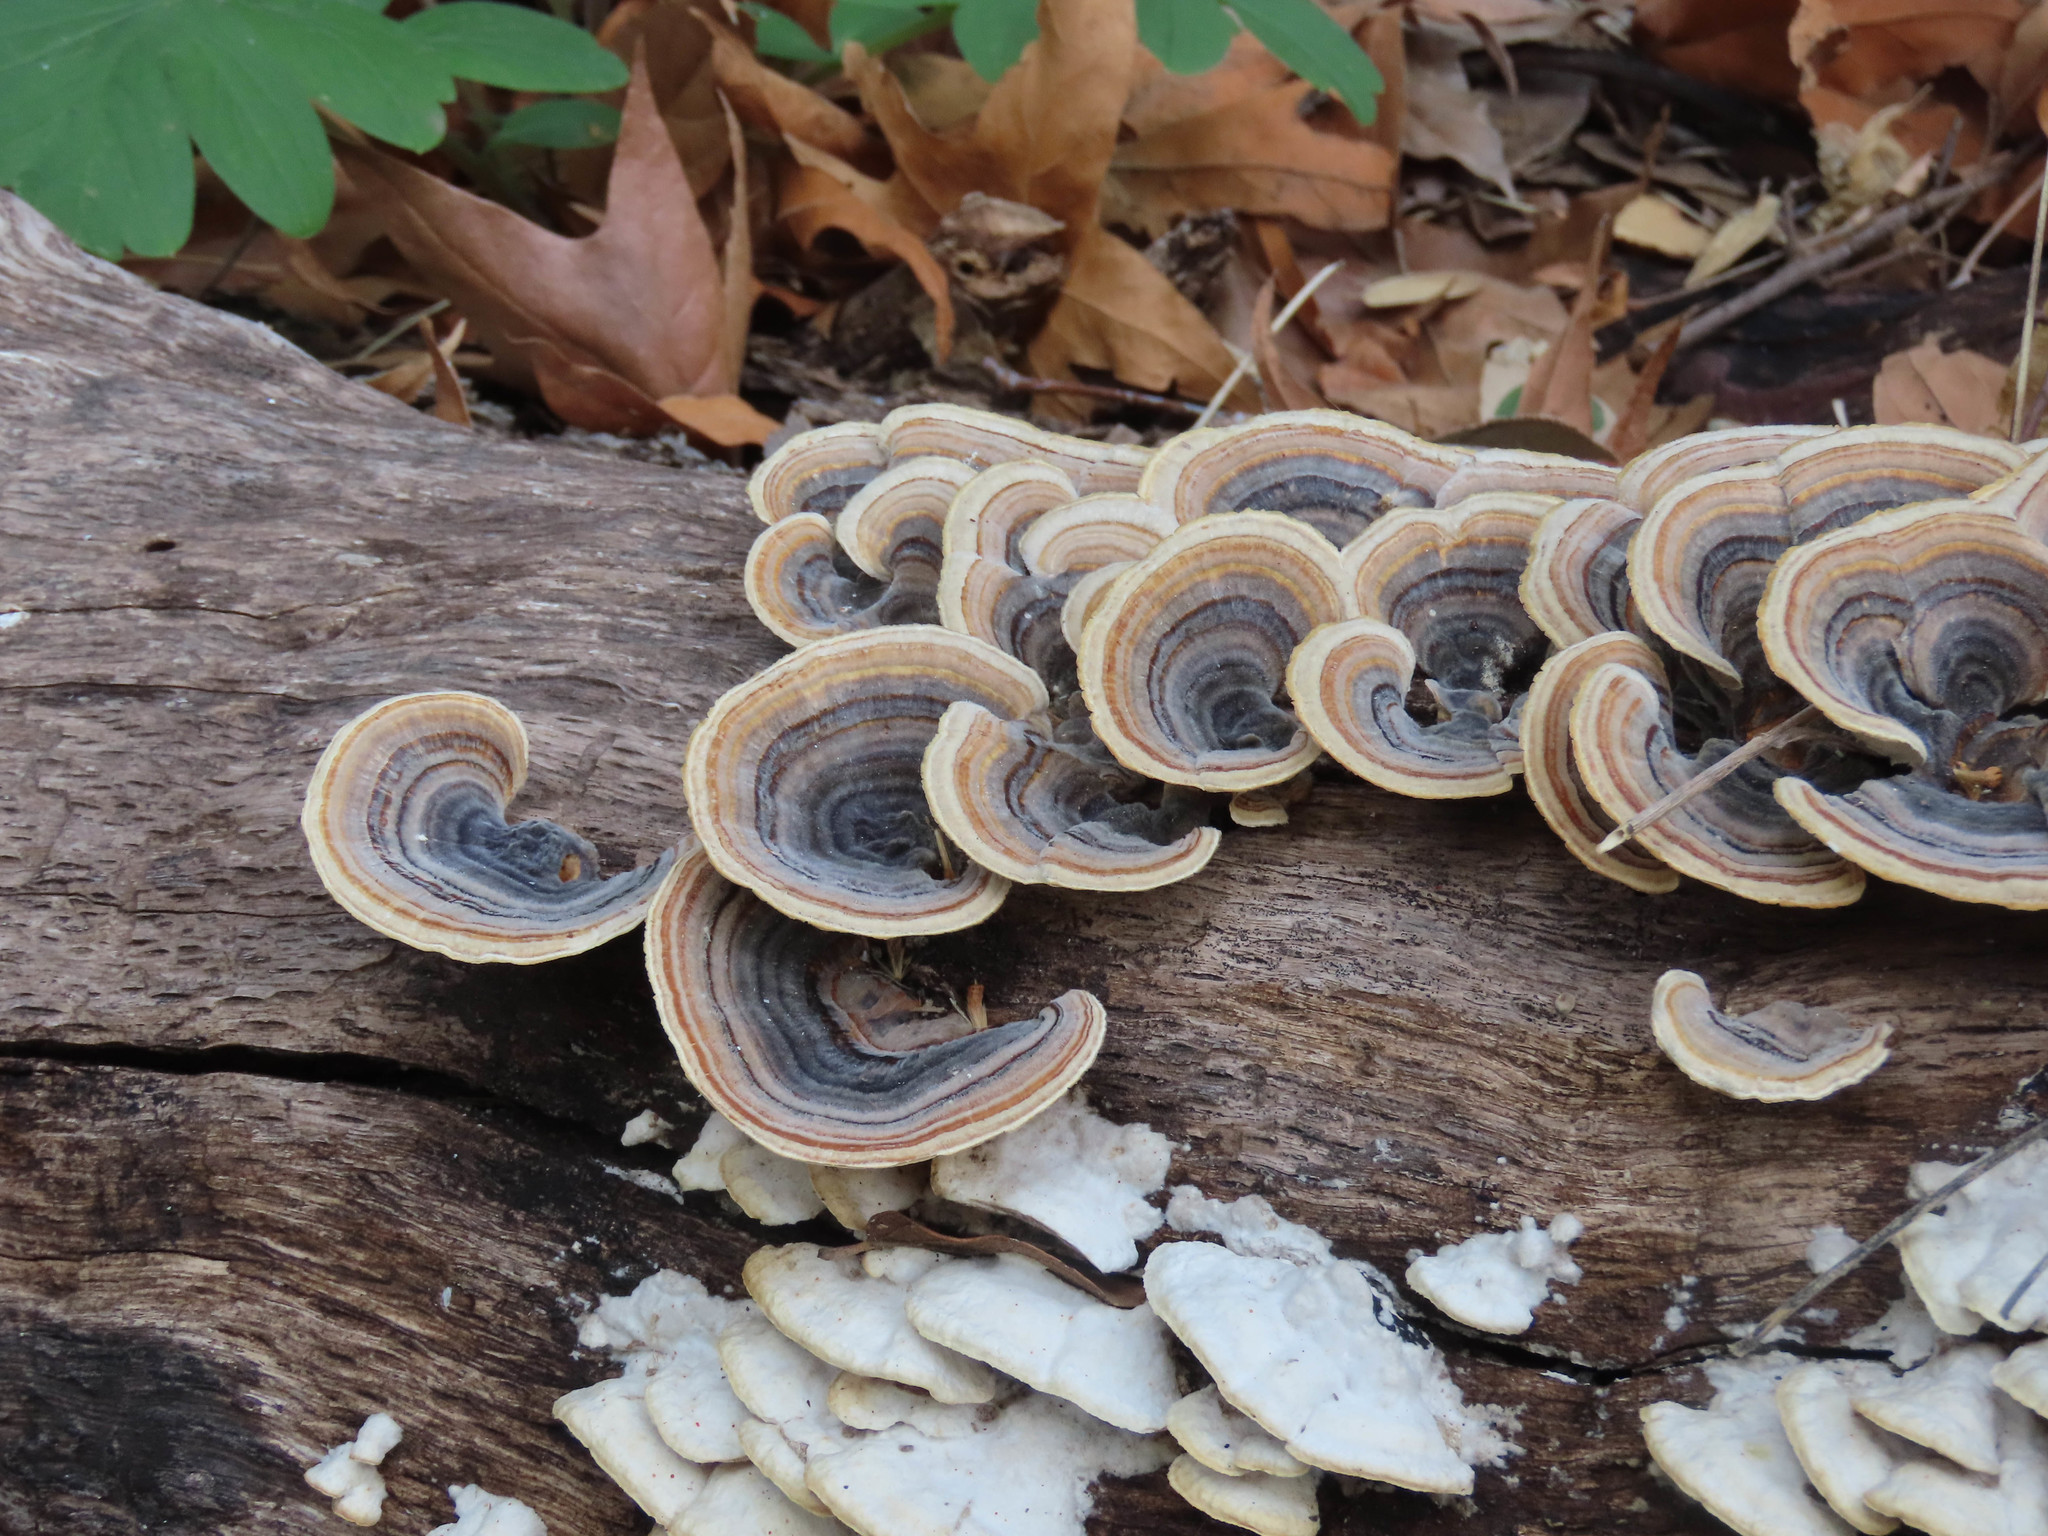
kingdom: Fungi
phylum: Basidiomycota
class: Agaricomycetes
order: Polyporales
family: Polyporaceae
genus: Trametes
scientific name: Trametes versicolor
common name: Turkeytail
